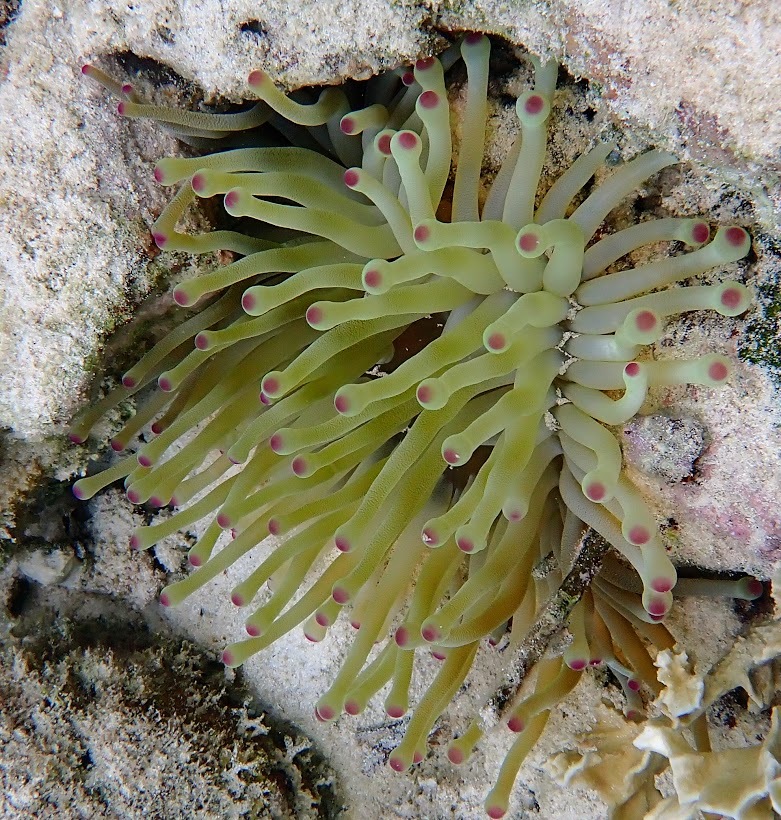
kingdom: Animalia
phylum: Cnidaria
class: Anthozoa
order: Actiniaria
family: Actiniidae
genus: Condylactis
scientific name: Condylactis gigantea
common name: Giant caribbean anemone
